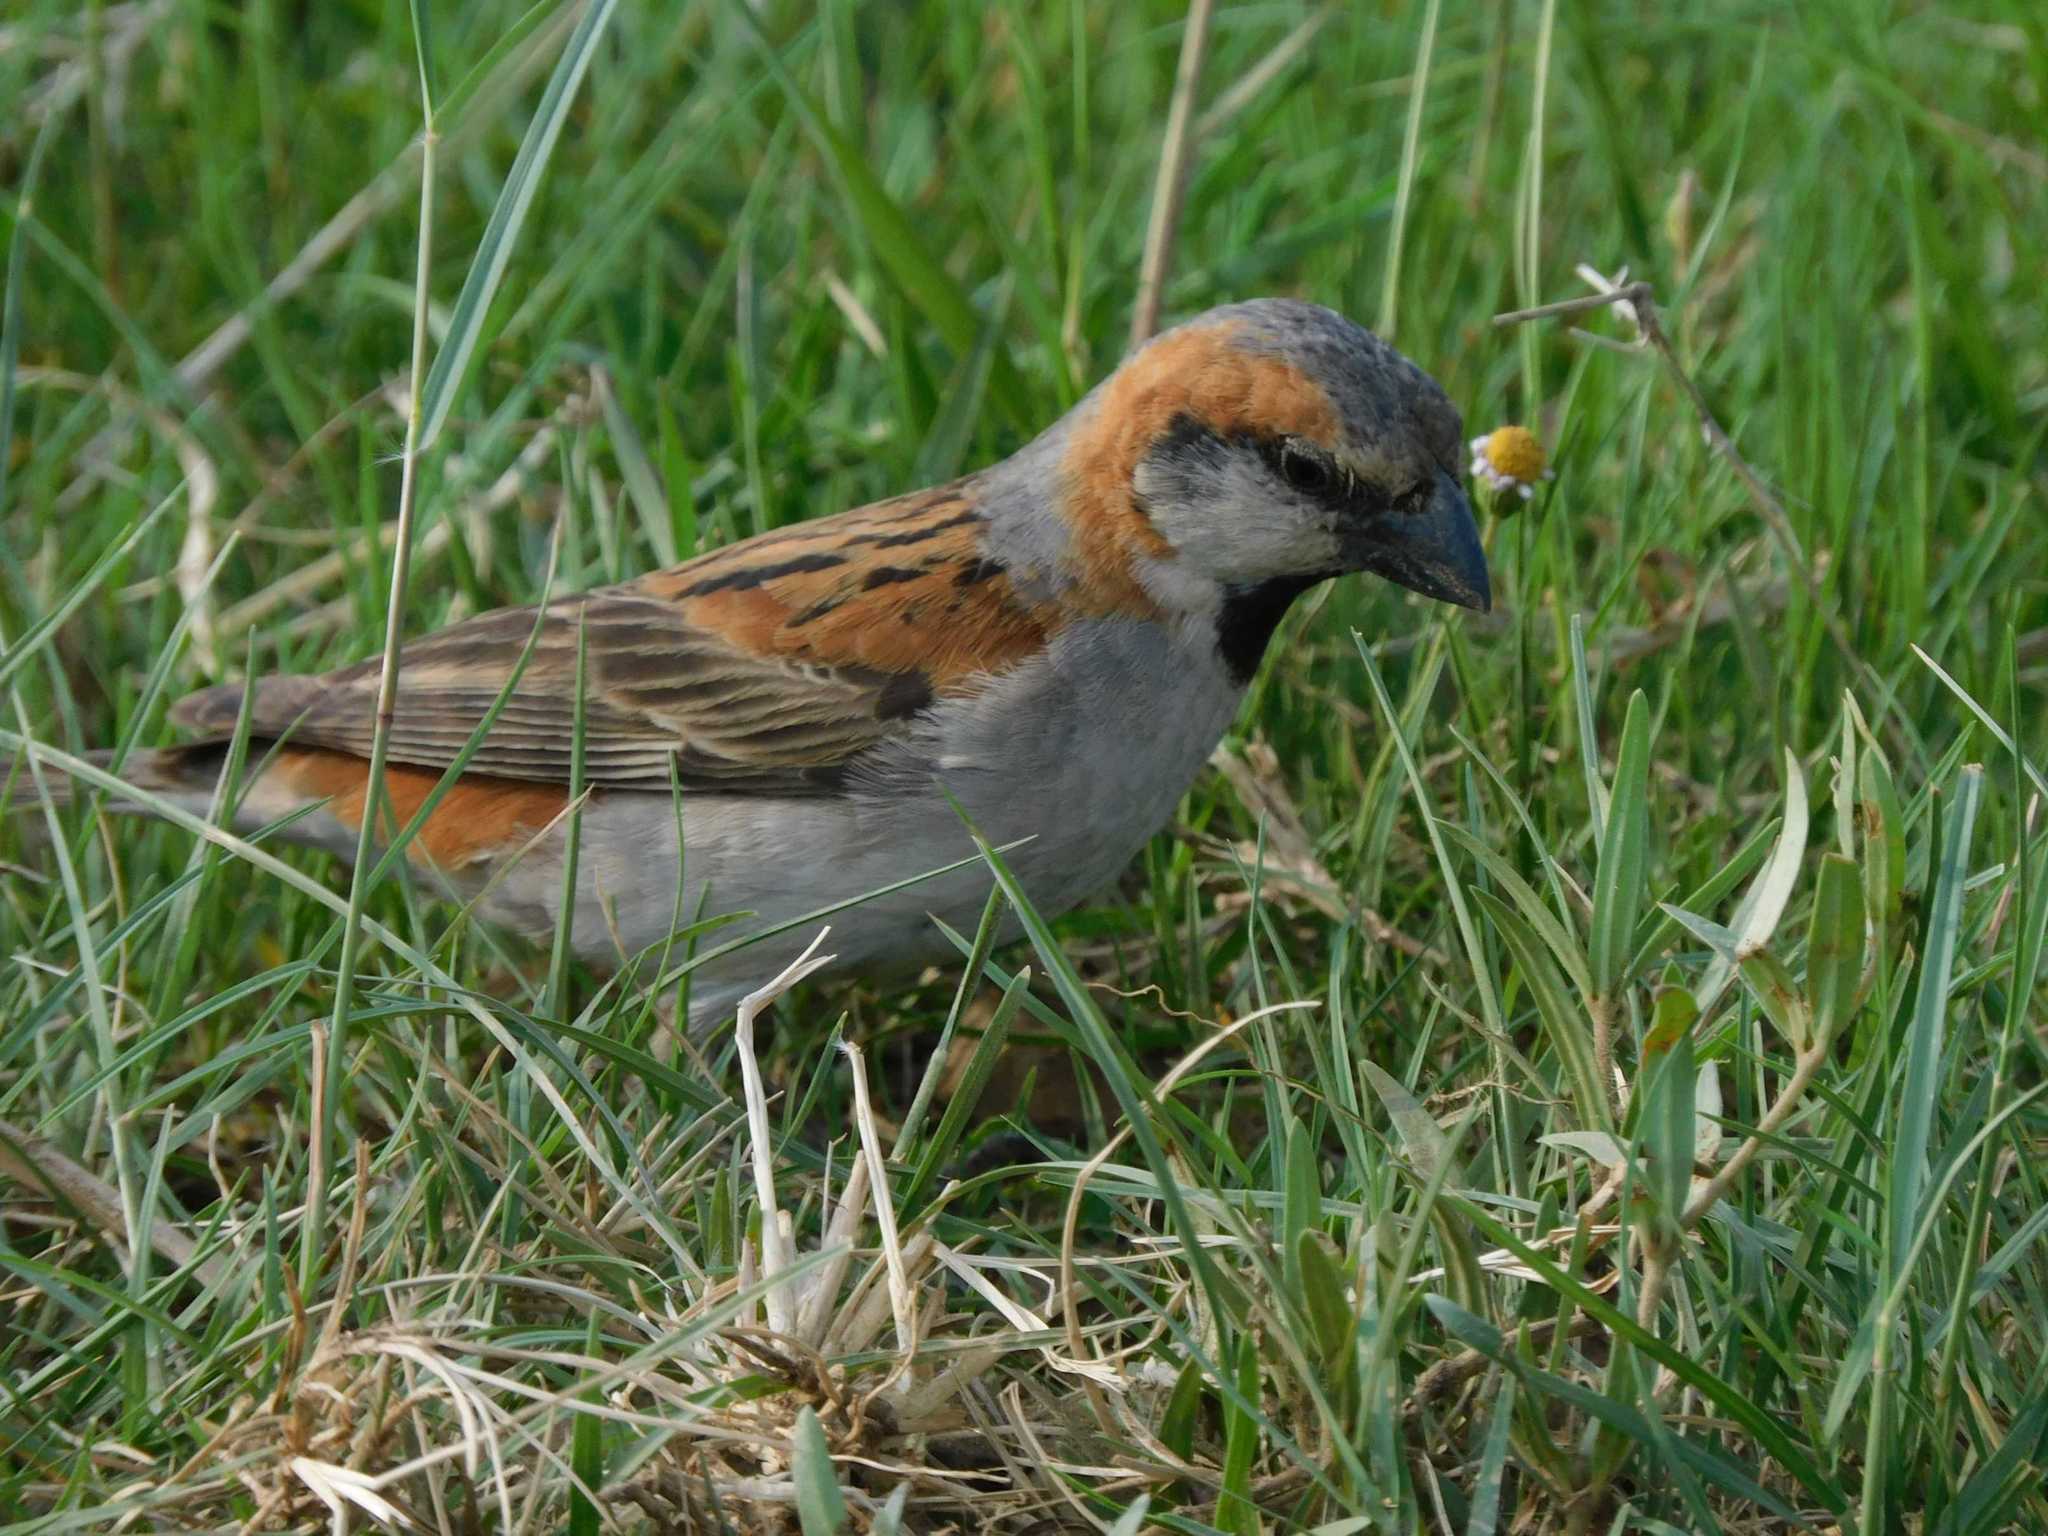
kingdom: Animalia
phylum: Chordata
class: Aves
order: Passeriformes
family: Passeridae
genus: Passer
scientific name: Passer motitensis
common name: Great sparrow
